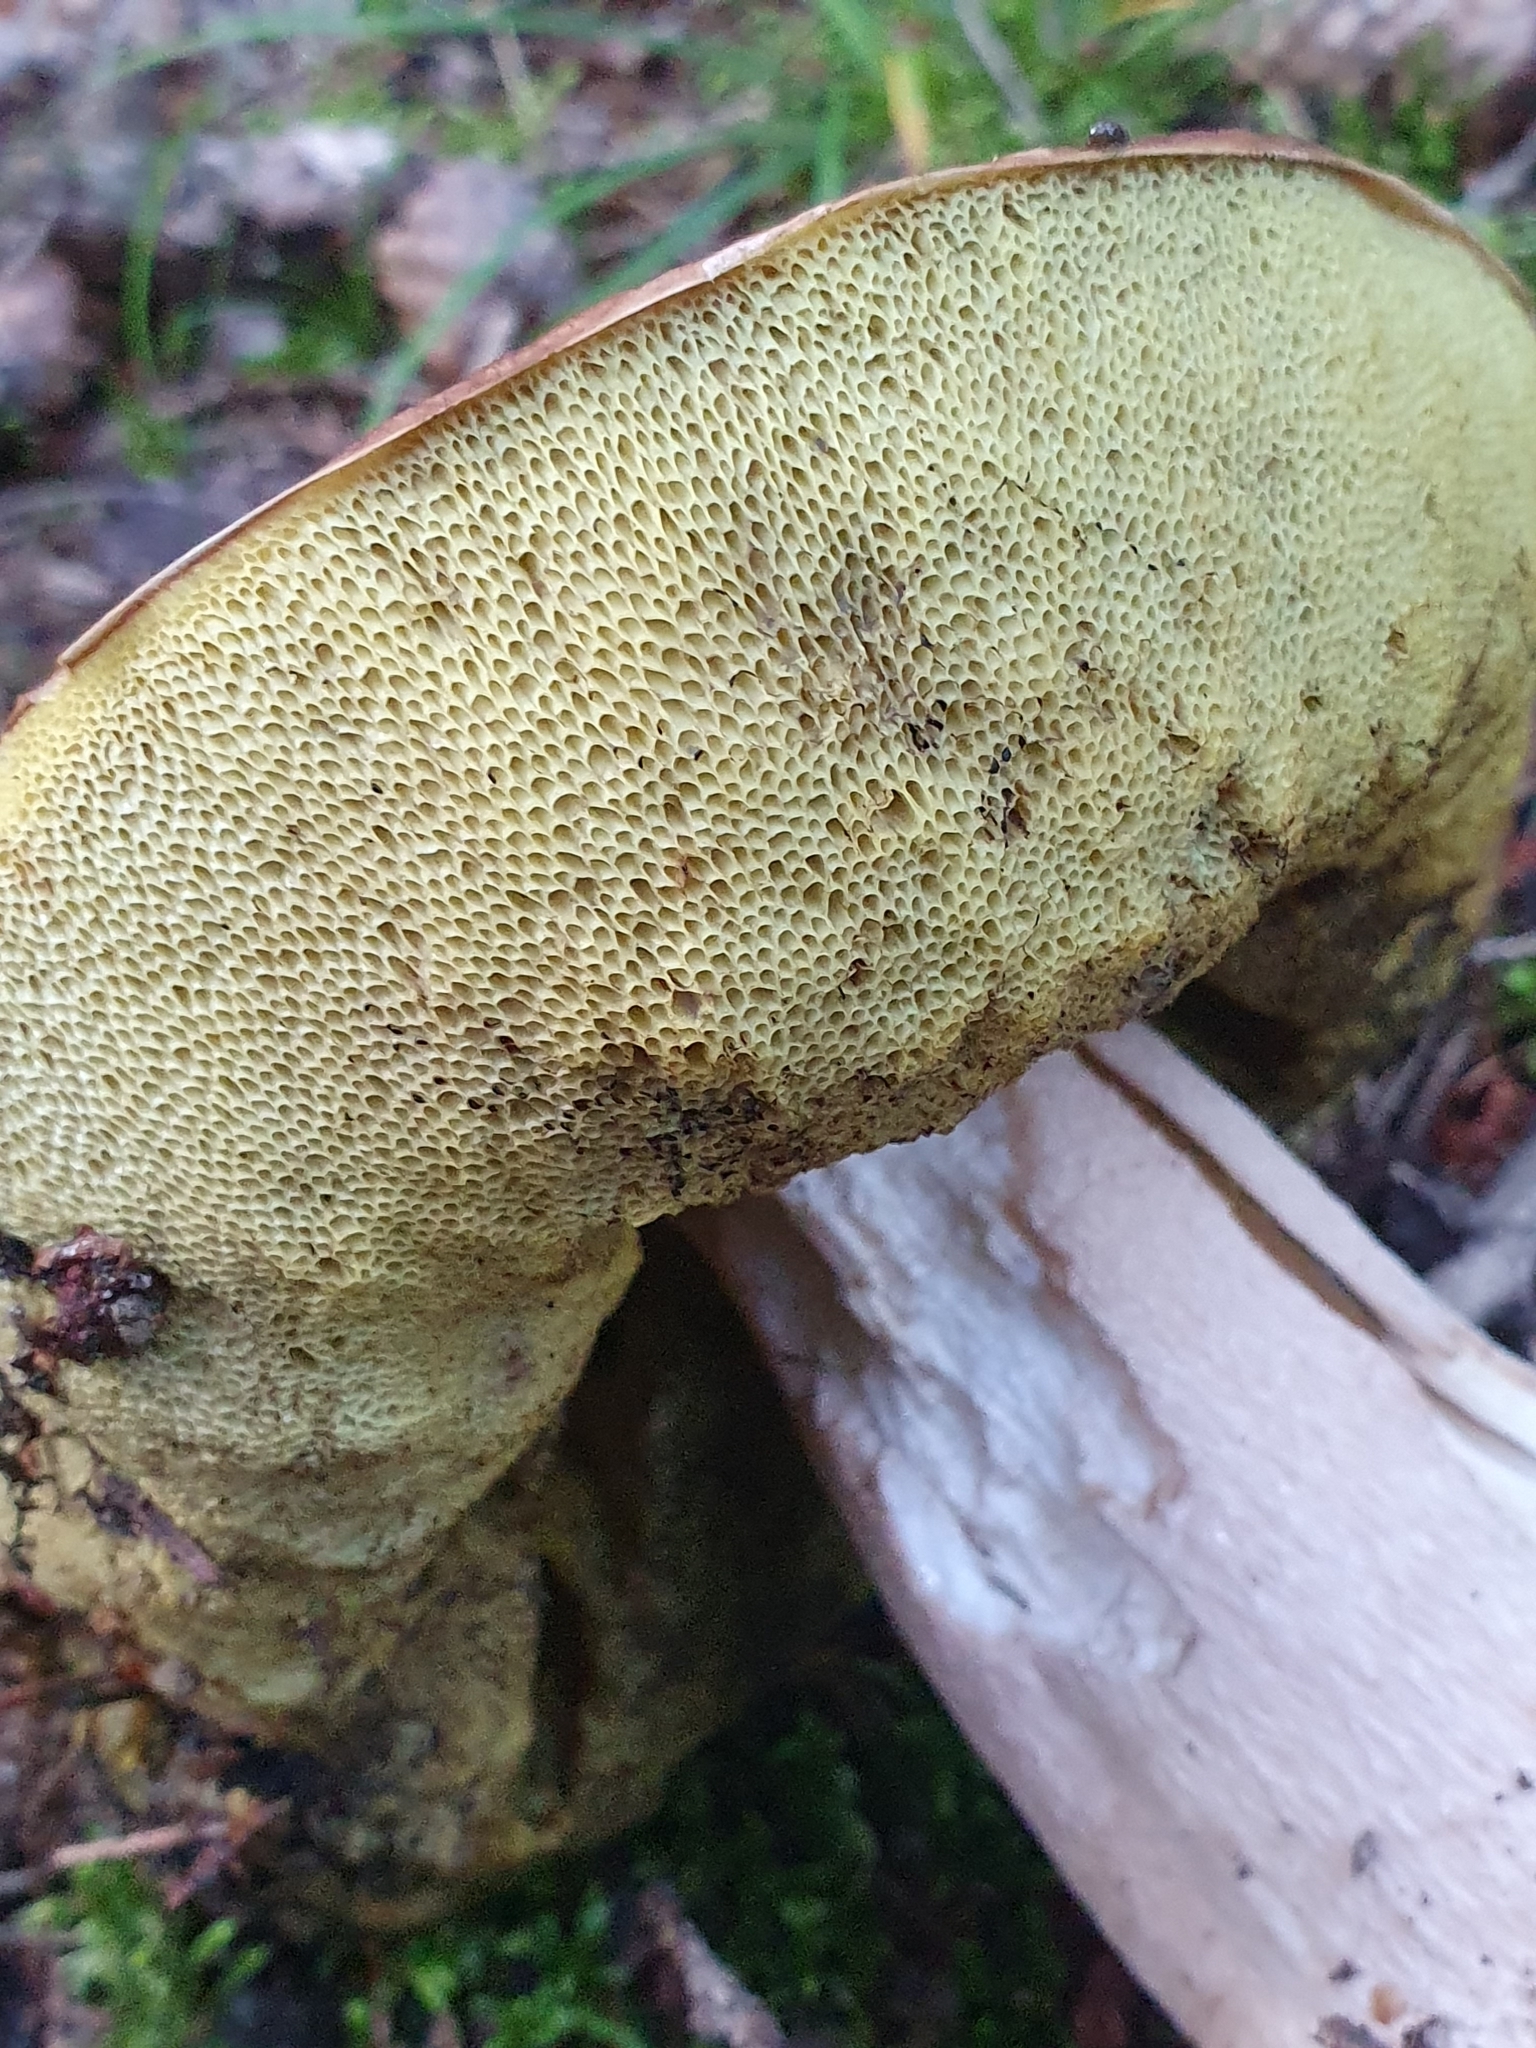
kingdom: Fungi
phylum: Basidiomycota
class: Agaricomycetes
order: Boletales
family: Boletaceae
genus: Boletus
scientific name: Boletus edulis
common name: Cep
